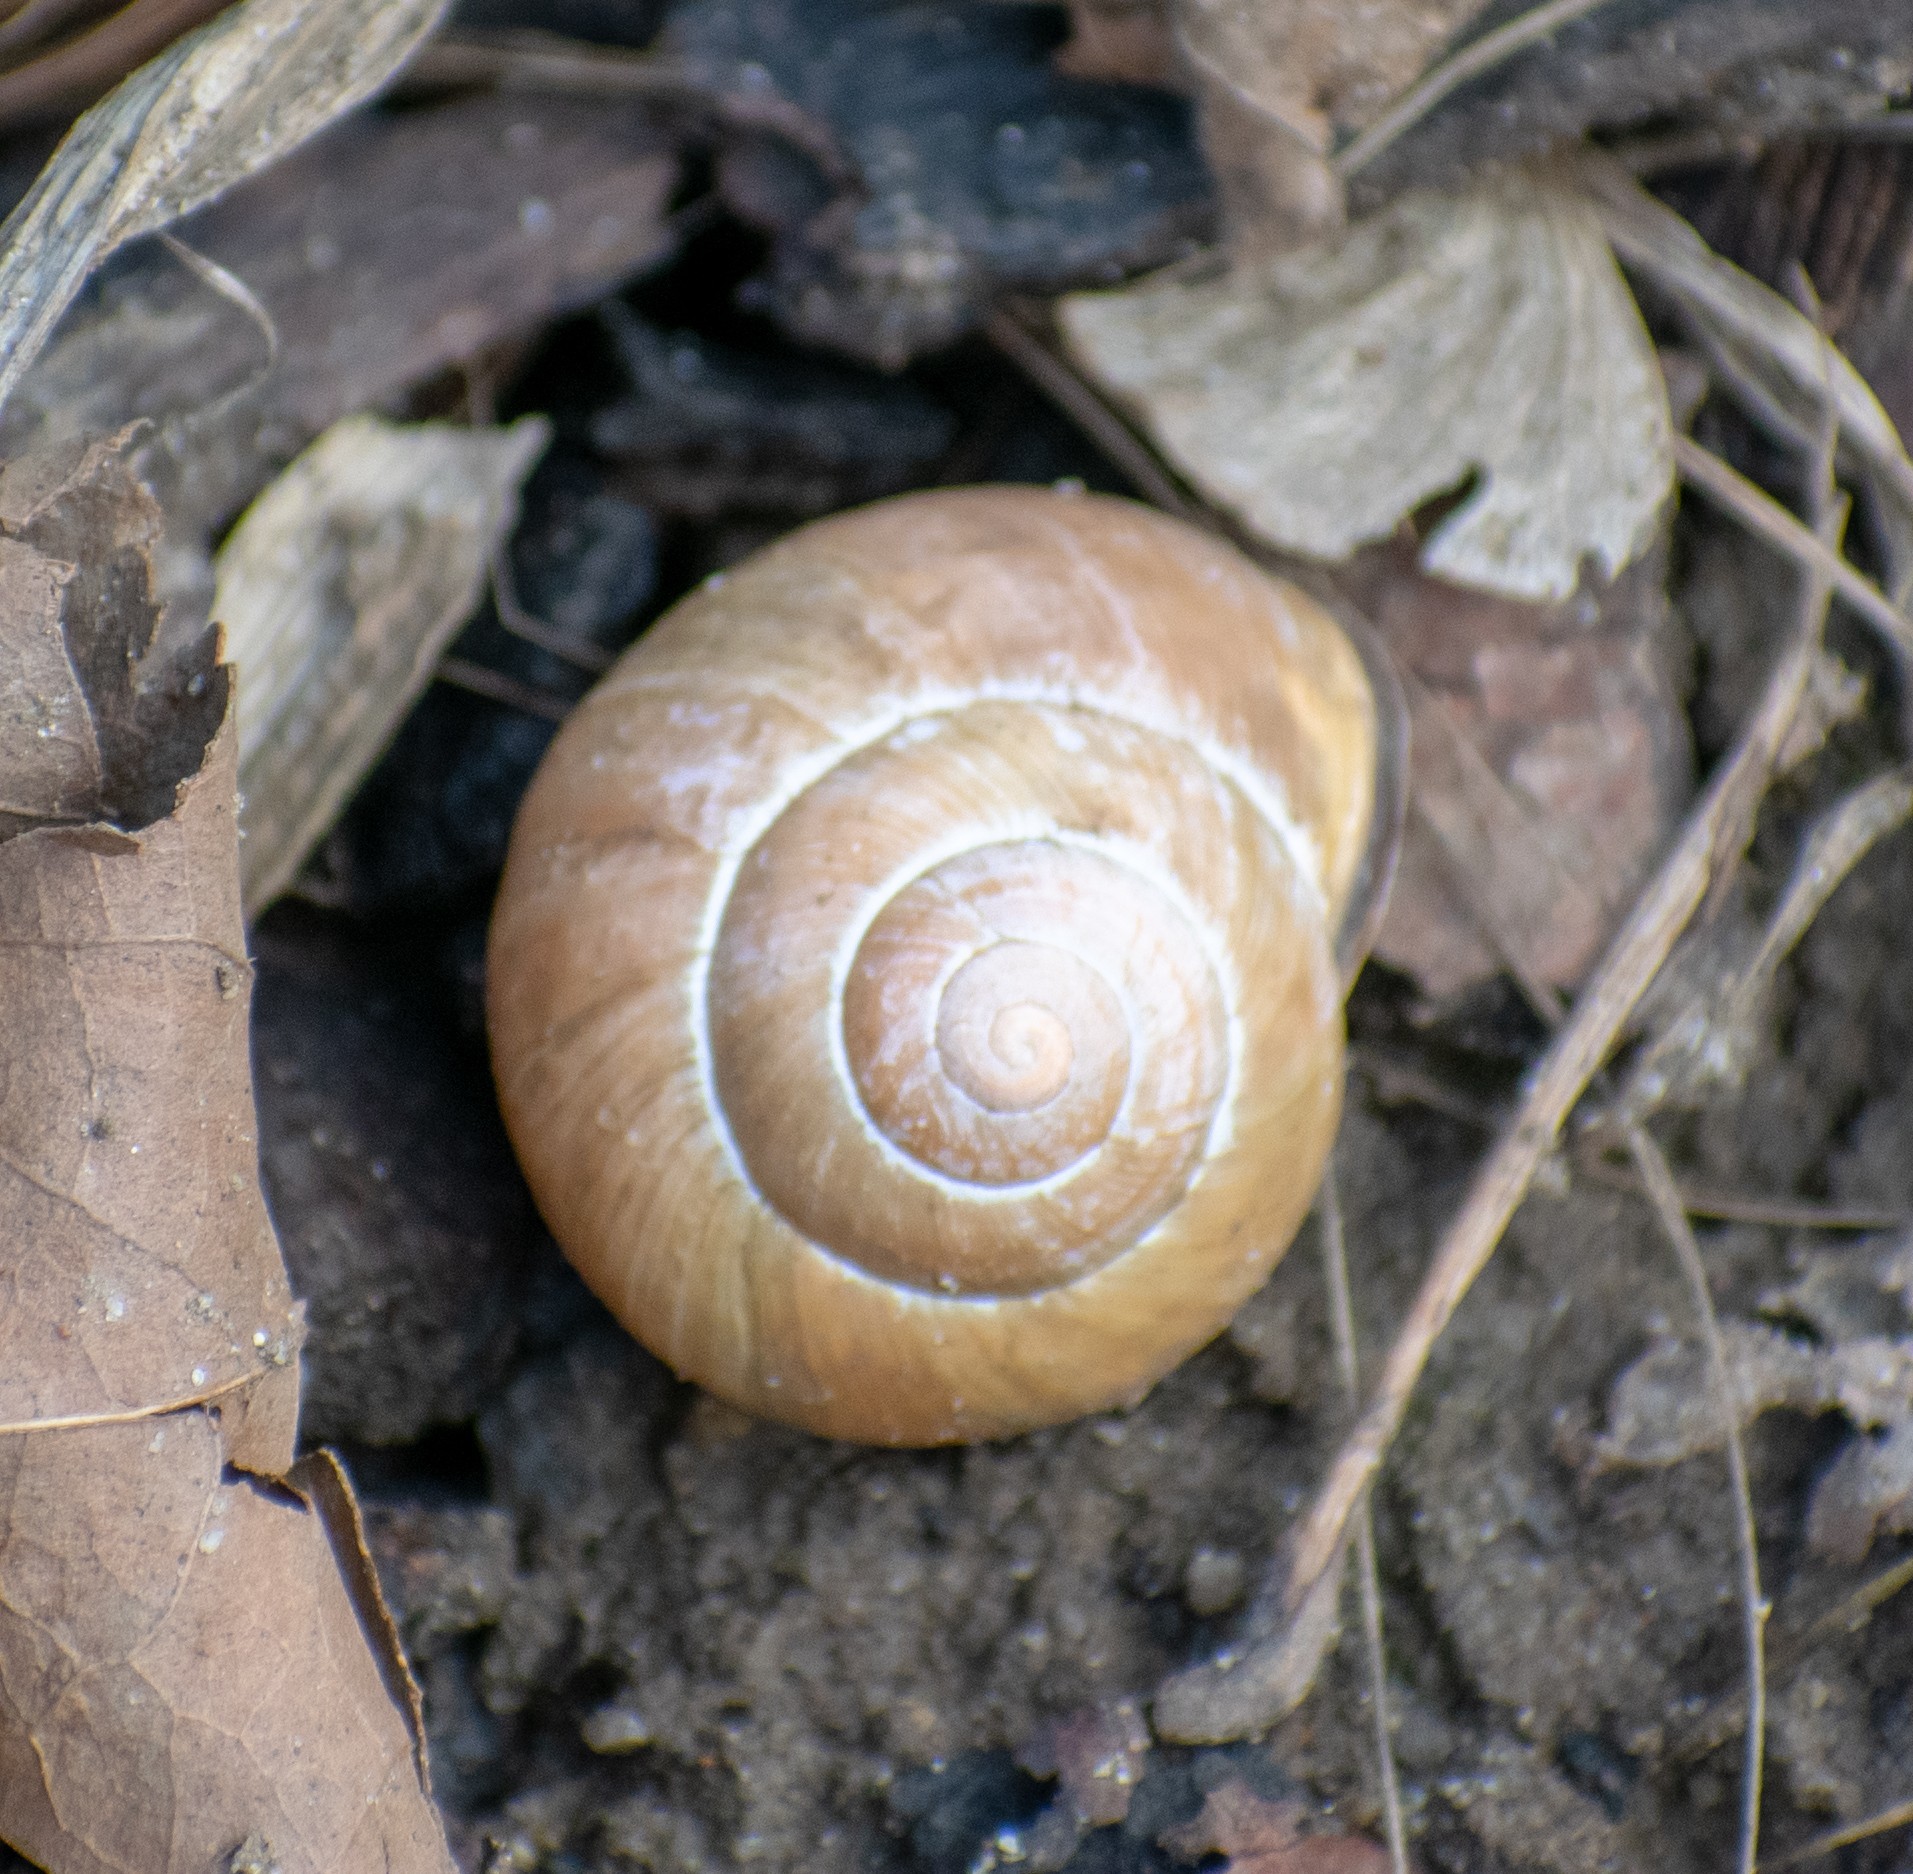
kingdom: Animalia
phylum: Mollusca
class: Gastropoda
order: Stylommatophora
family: Helicidae
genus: Cepaea
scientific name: Cepaea nemoralis
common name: Grovesnail
